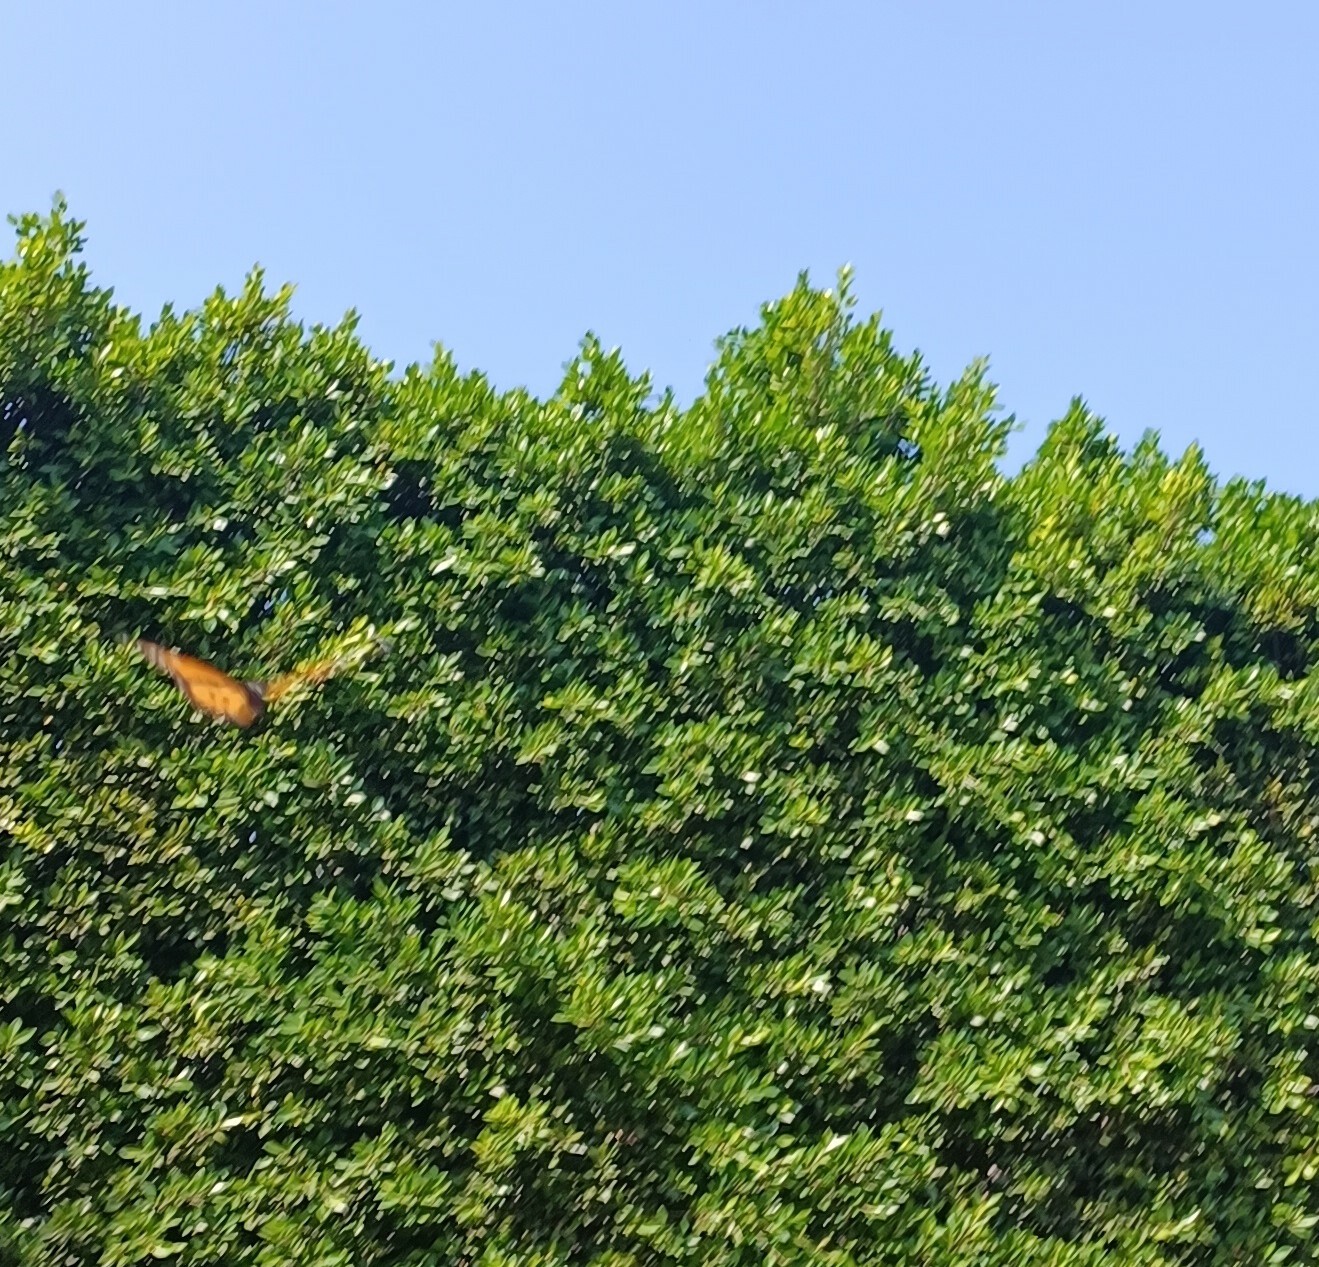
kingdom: Animalia
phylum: Arthropoda
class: Insecta
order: Lepidoptera
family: Nymphalidae
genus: Danaus
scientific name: Danaus plexippus
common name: Monarch
